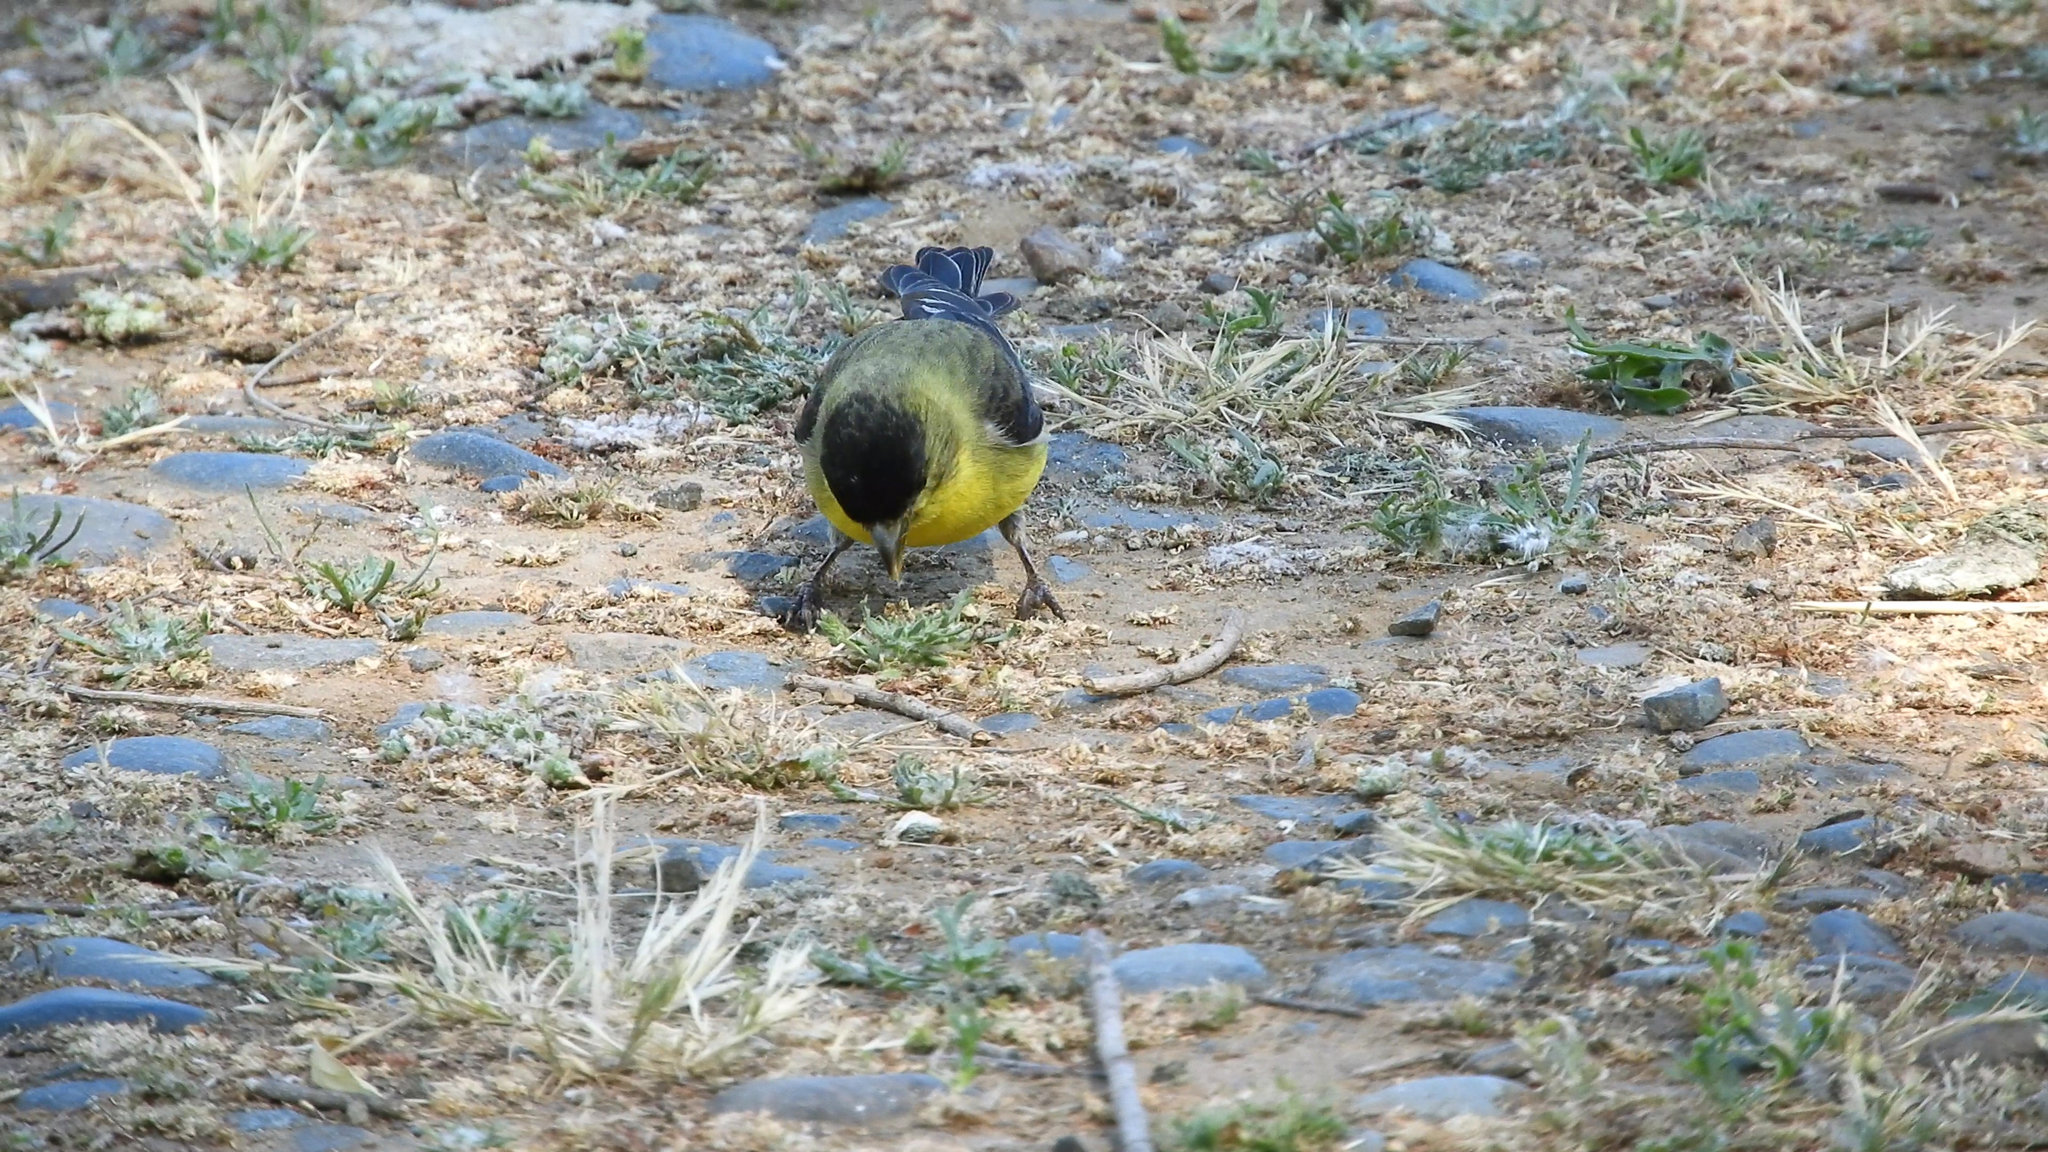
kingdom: Animalia
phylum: Chordata
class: Aves
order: Passeriformes
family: Fringillidae
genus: Spinus
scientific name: Spinus psaltria
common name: Lesser goldfinch
